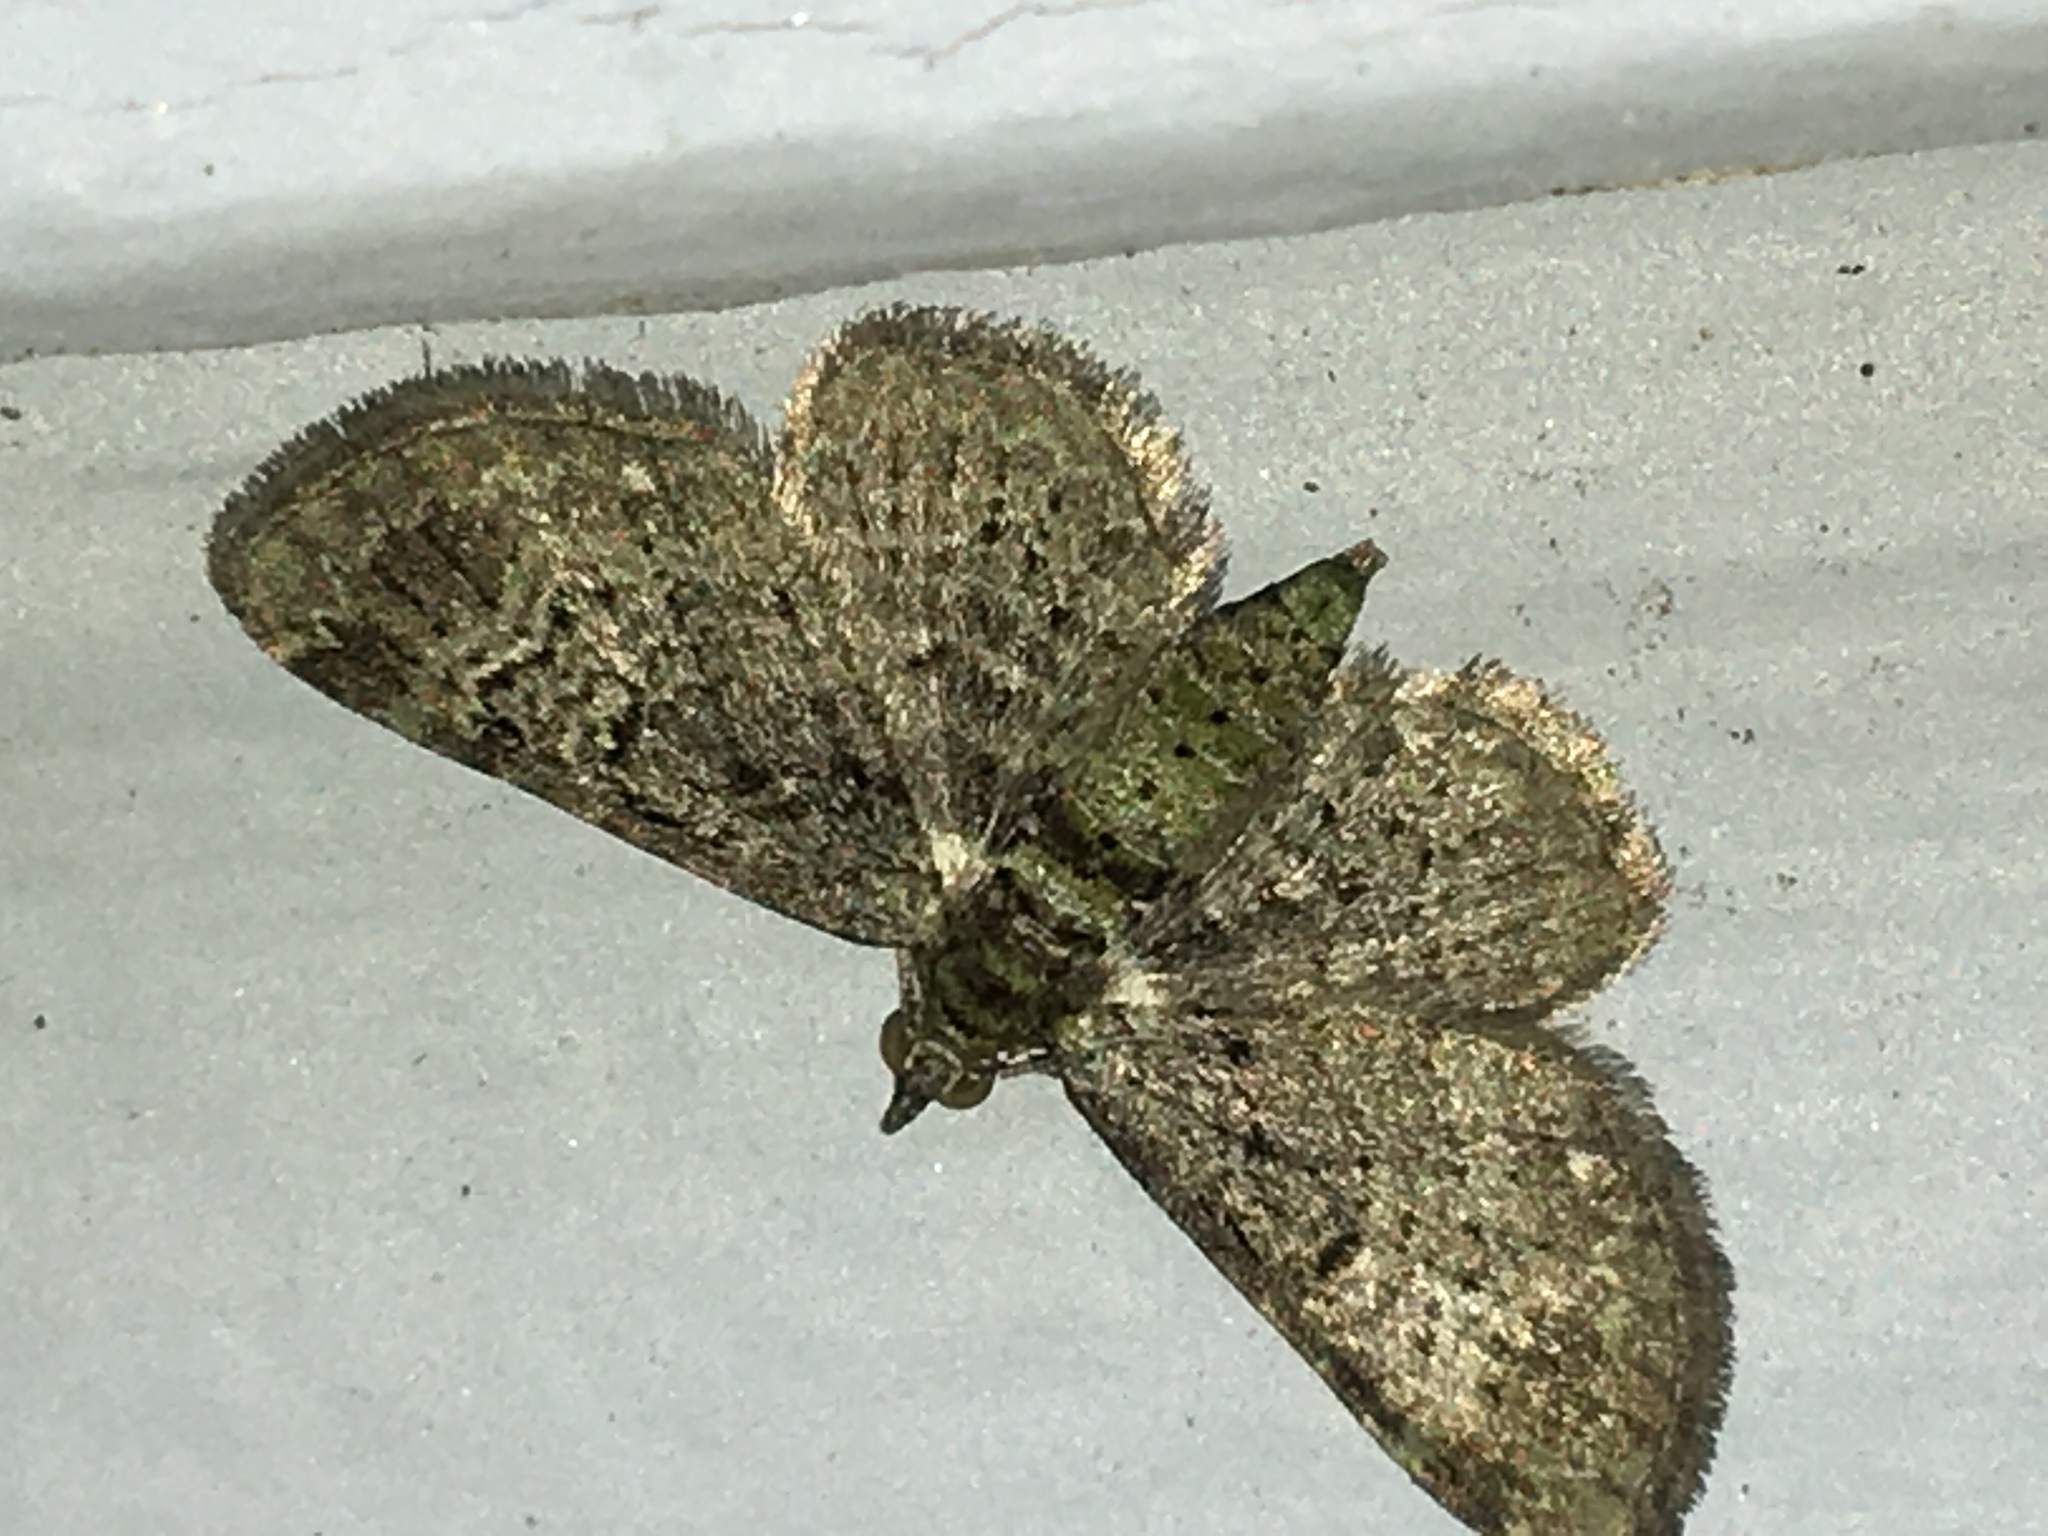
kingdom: Animalia
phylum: Arthropoda
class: Insecta
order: Lepidoptera
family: Geometridae
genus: Pasiphila
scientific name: Pasiphila rectangulata
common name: Green pug
